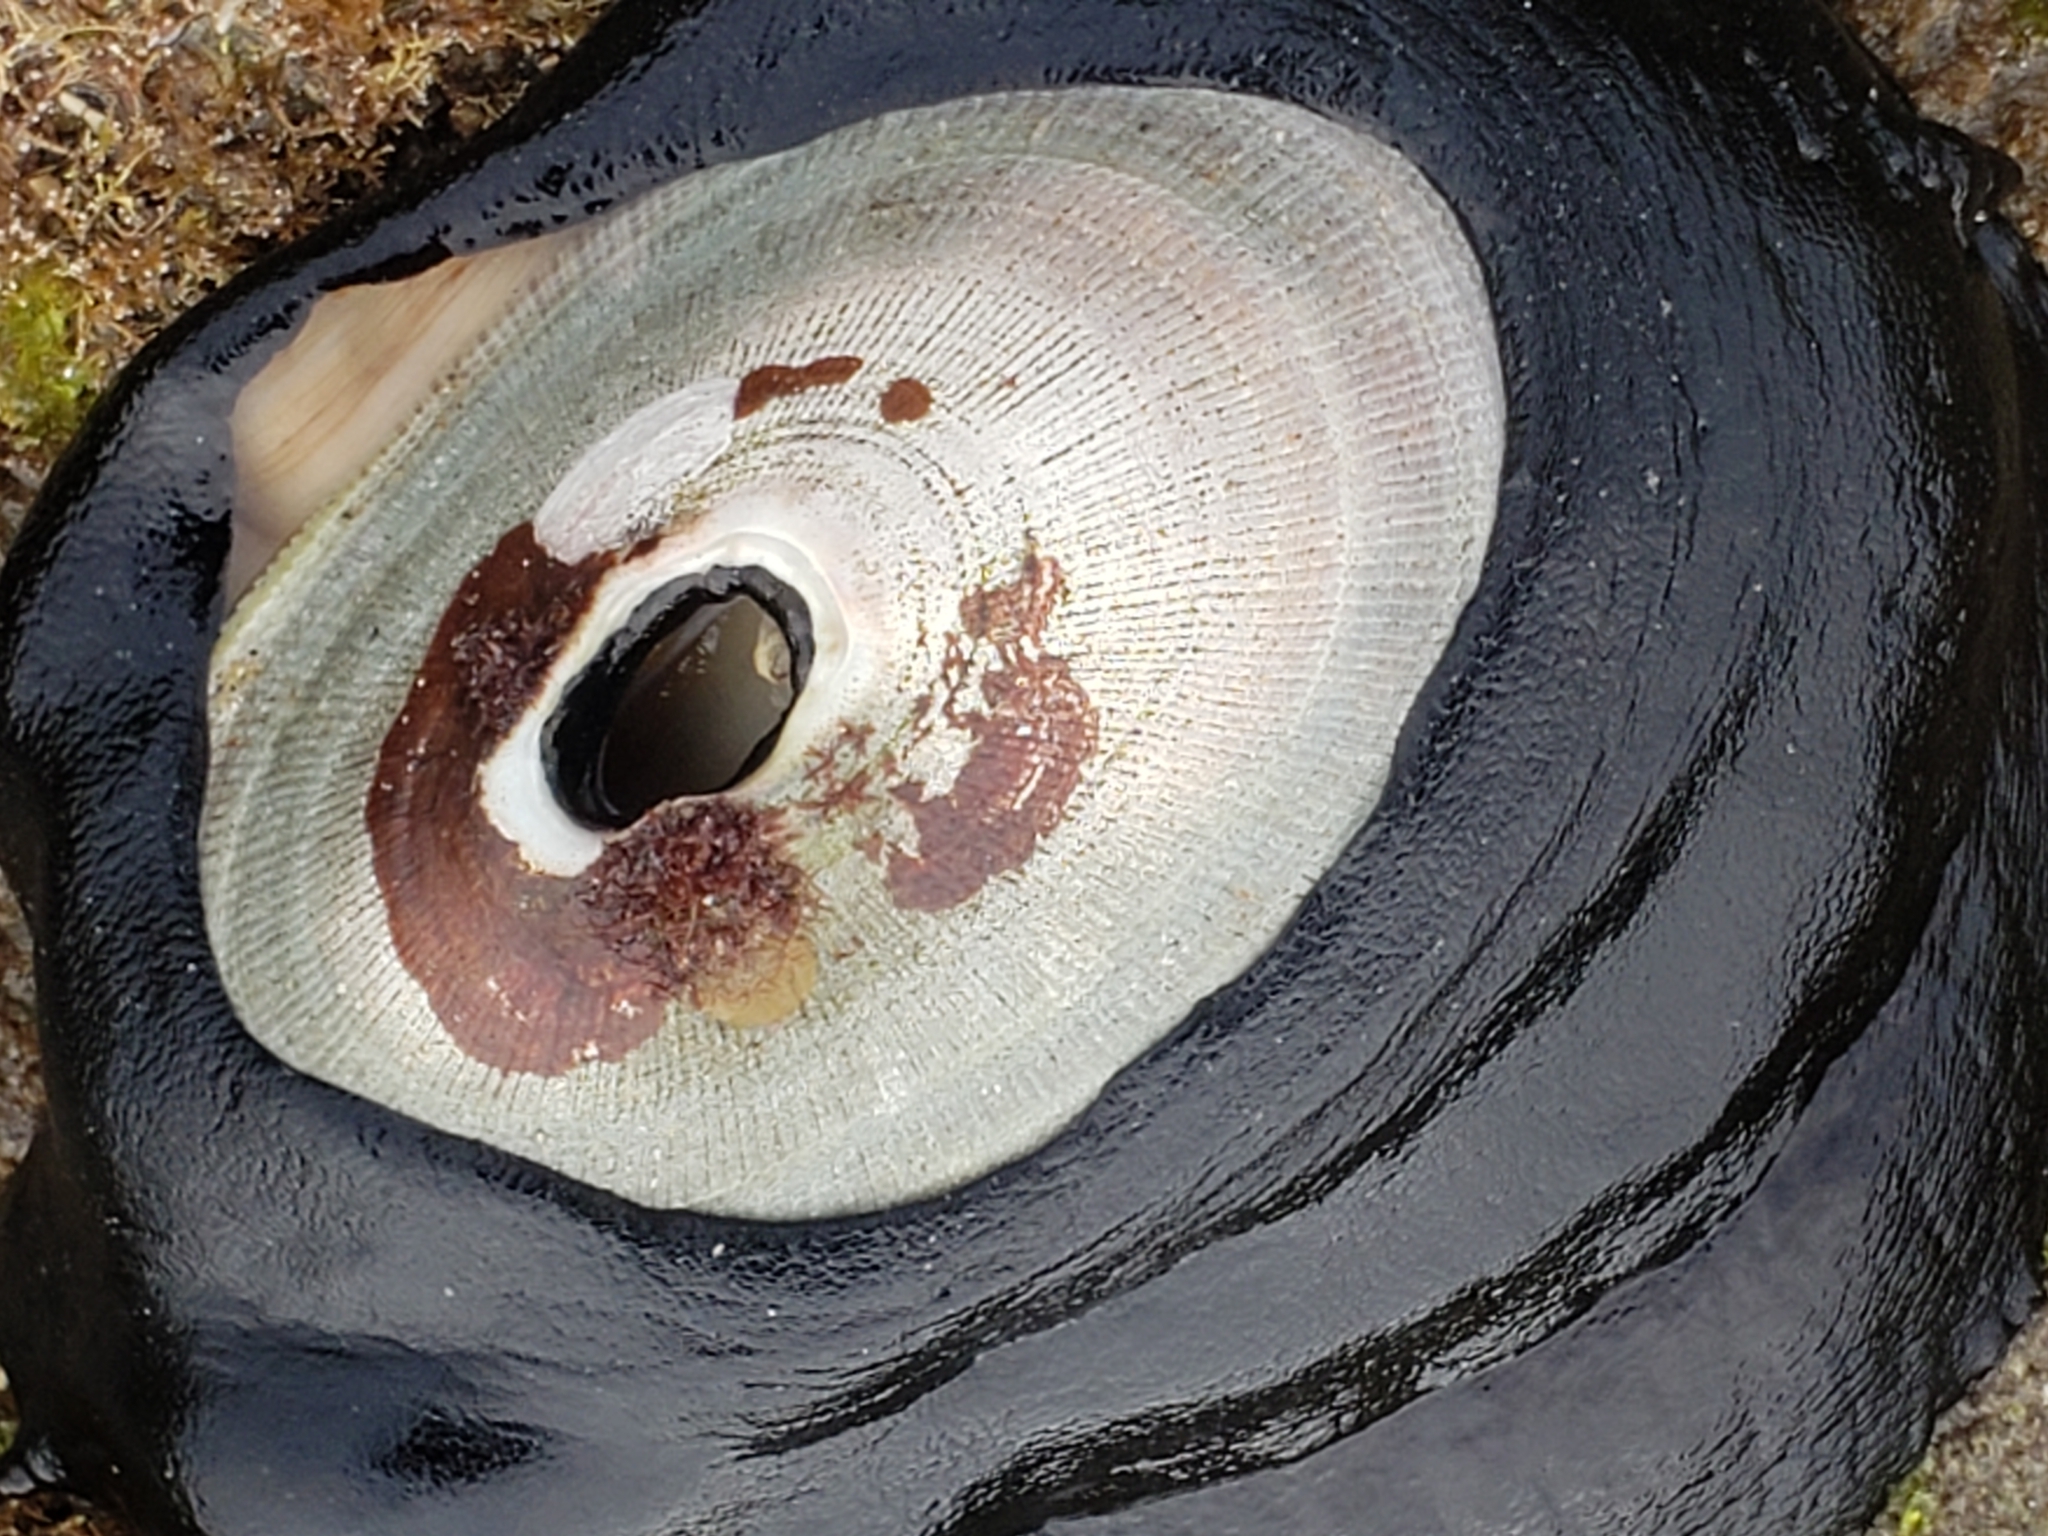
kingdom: Animalia
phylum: Mollusca
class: Gastropoda
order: Lepetellida
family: Fissurellidae
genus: Megathura
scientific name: Megathura crenulata
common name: Giant keyhole limpet
